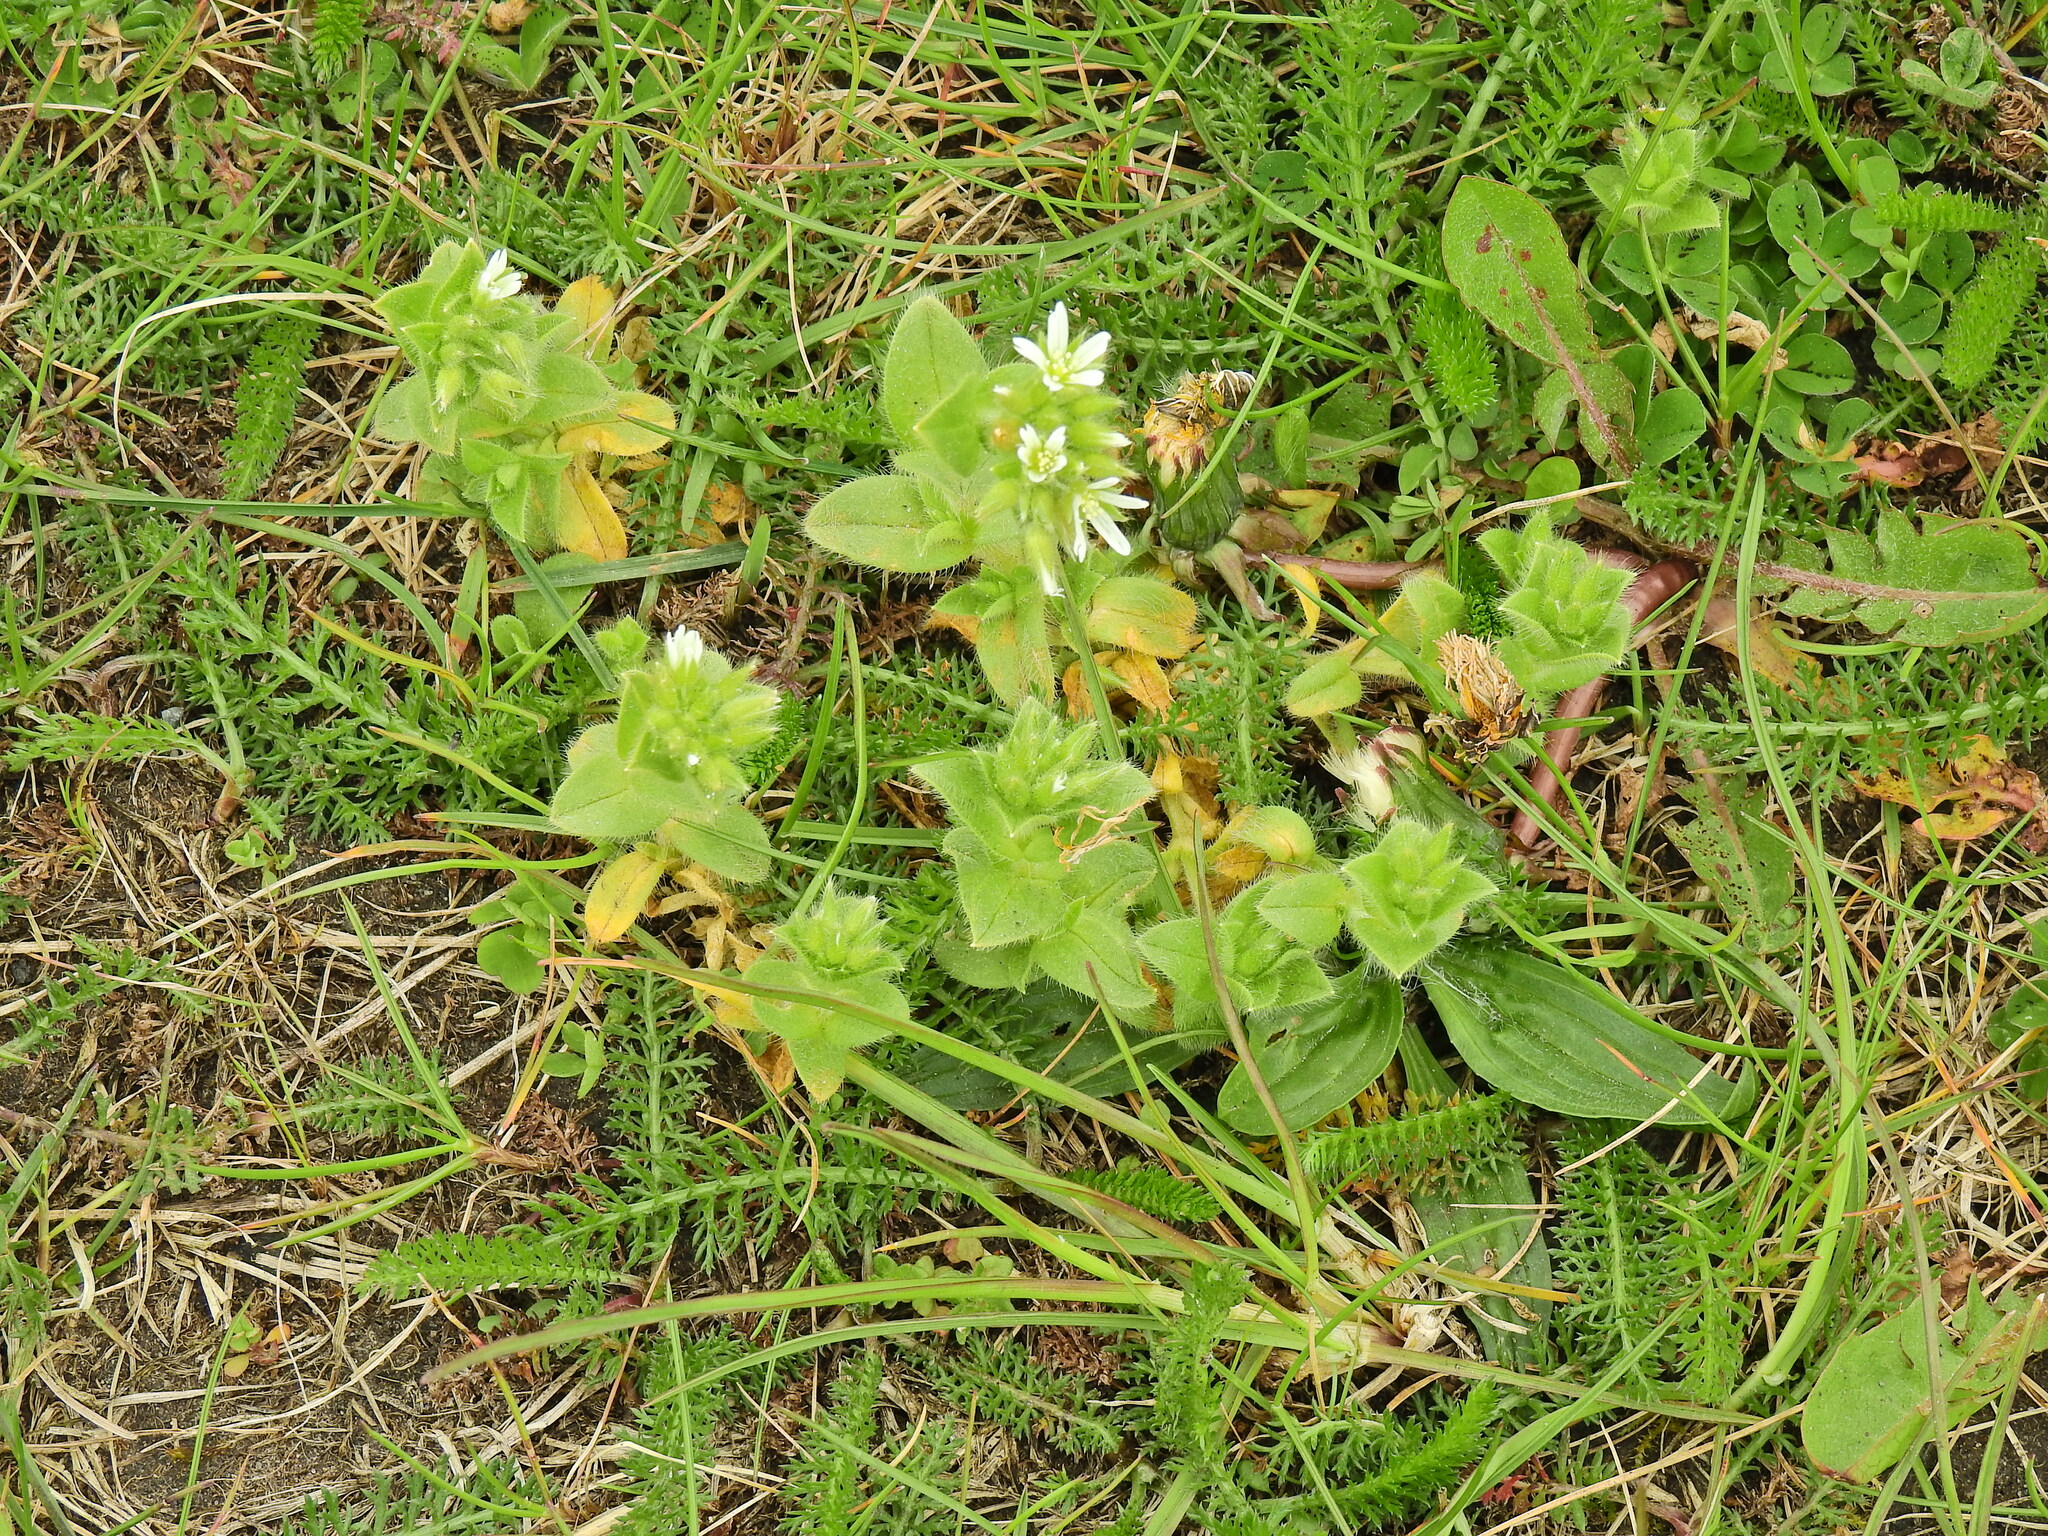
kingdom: Plantae
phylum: Tracheophyta
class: Magnoliopsida
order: Caryophyllales
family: Caryophyllaceae
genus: Cerastium
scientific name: Cerastium glomeratum
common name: Sticky chickweed
